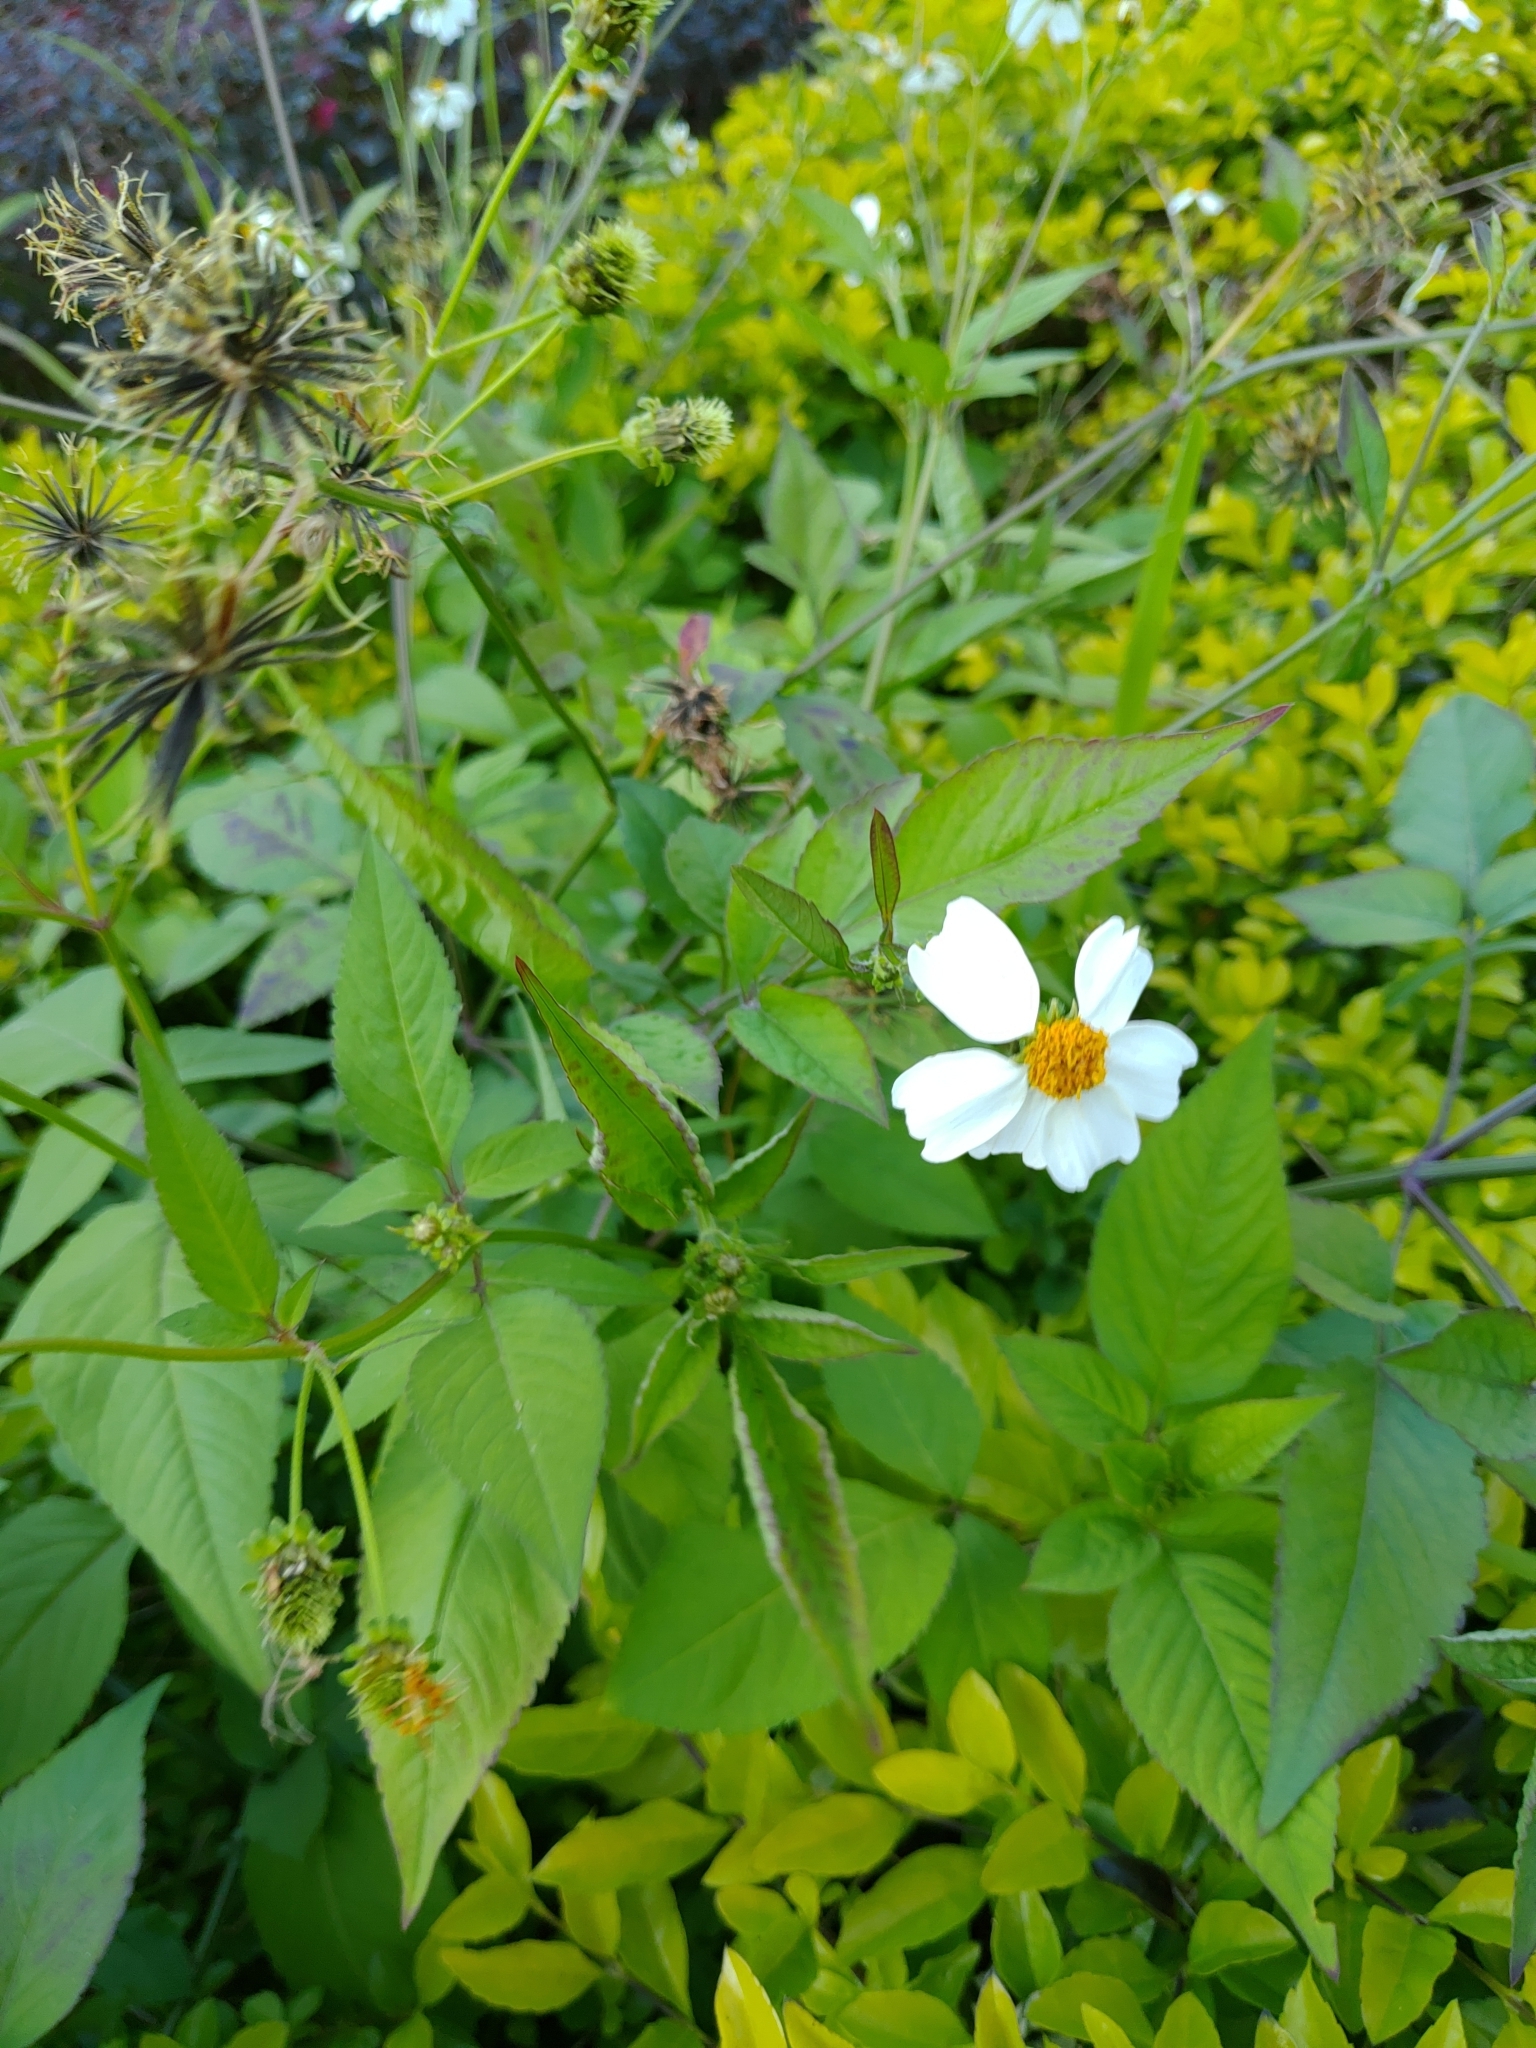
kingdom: Plantae
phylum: Tracheophyta
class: Magnoliopsida
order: Asterales
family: Asteraceae
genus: Bidens
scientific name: Bidens alba
